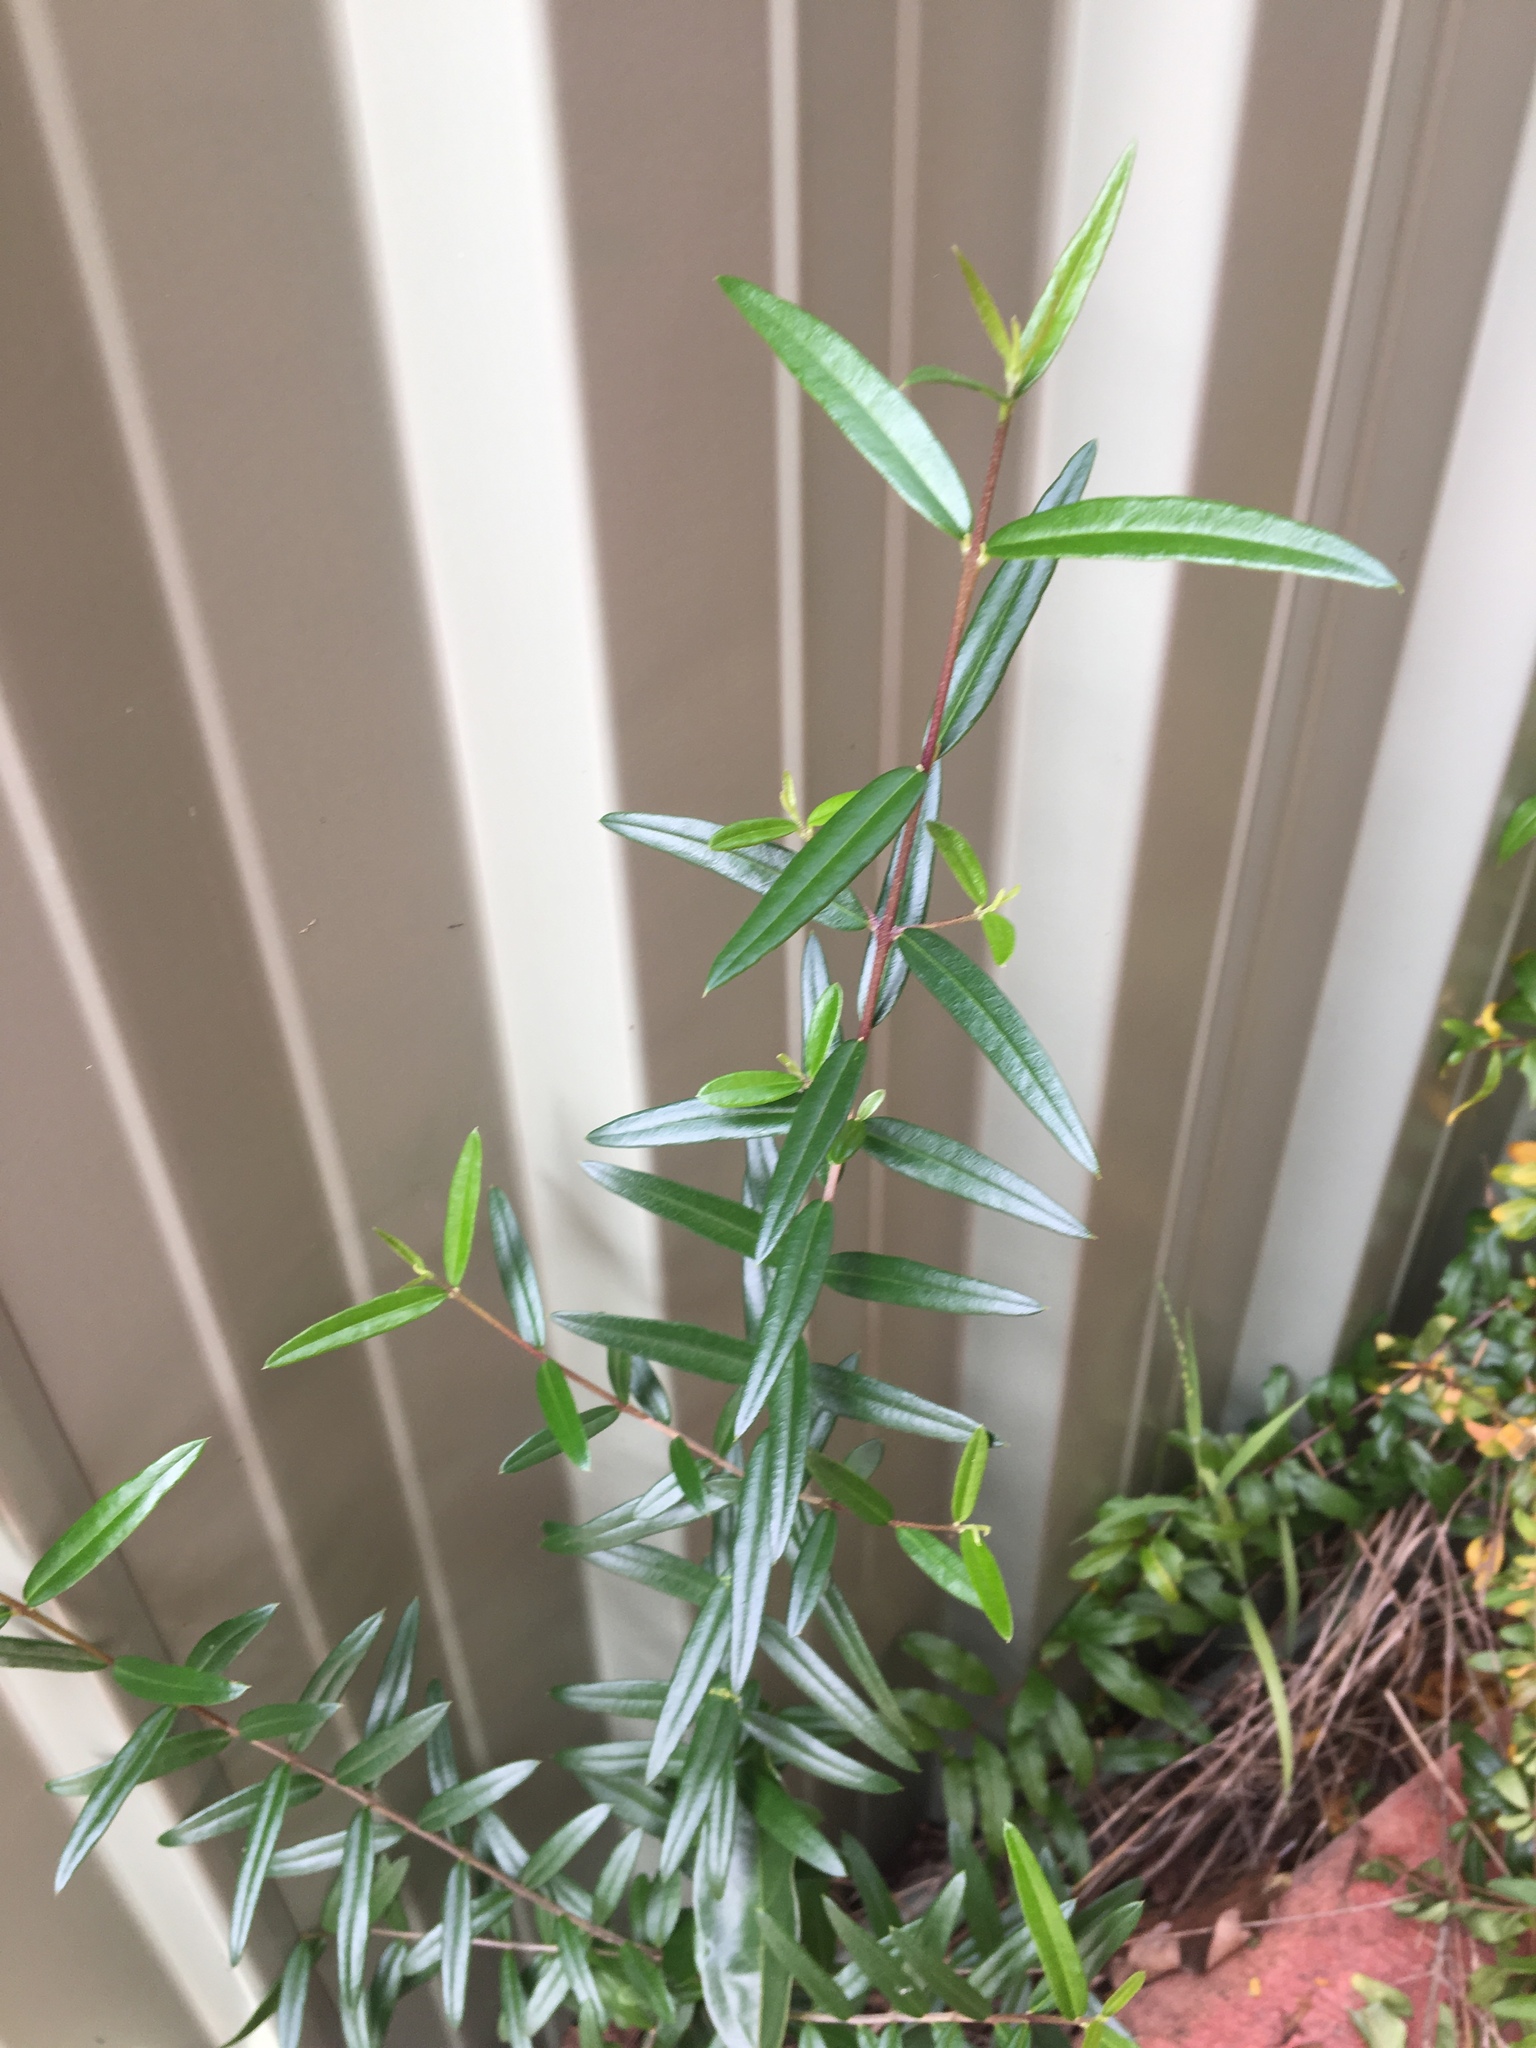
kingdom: Plantae
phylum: Tracheophyta
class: Magnoliopsida
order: Lamiales
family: Oleaceae
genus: Olea
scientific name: Olea europaea
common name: Olive
